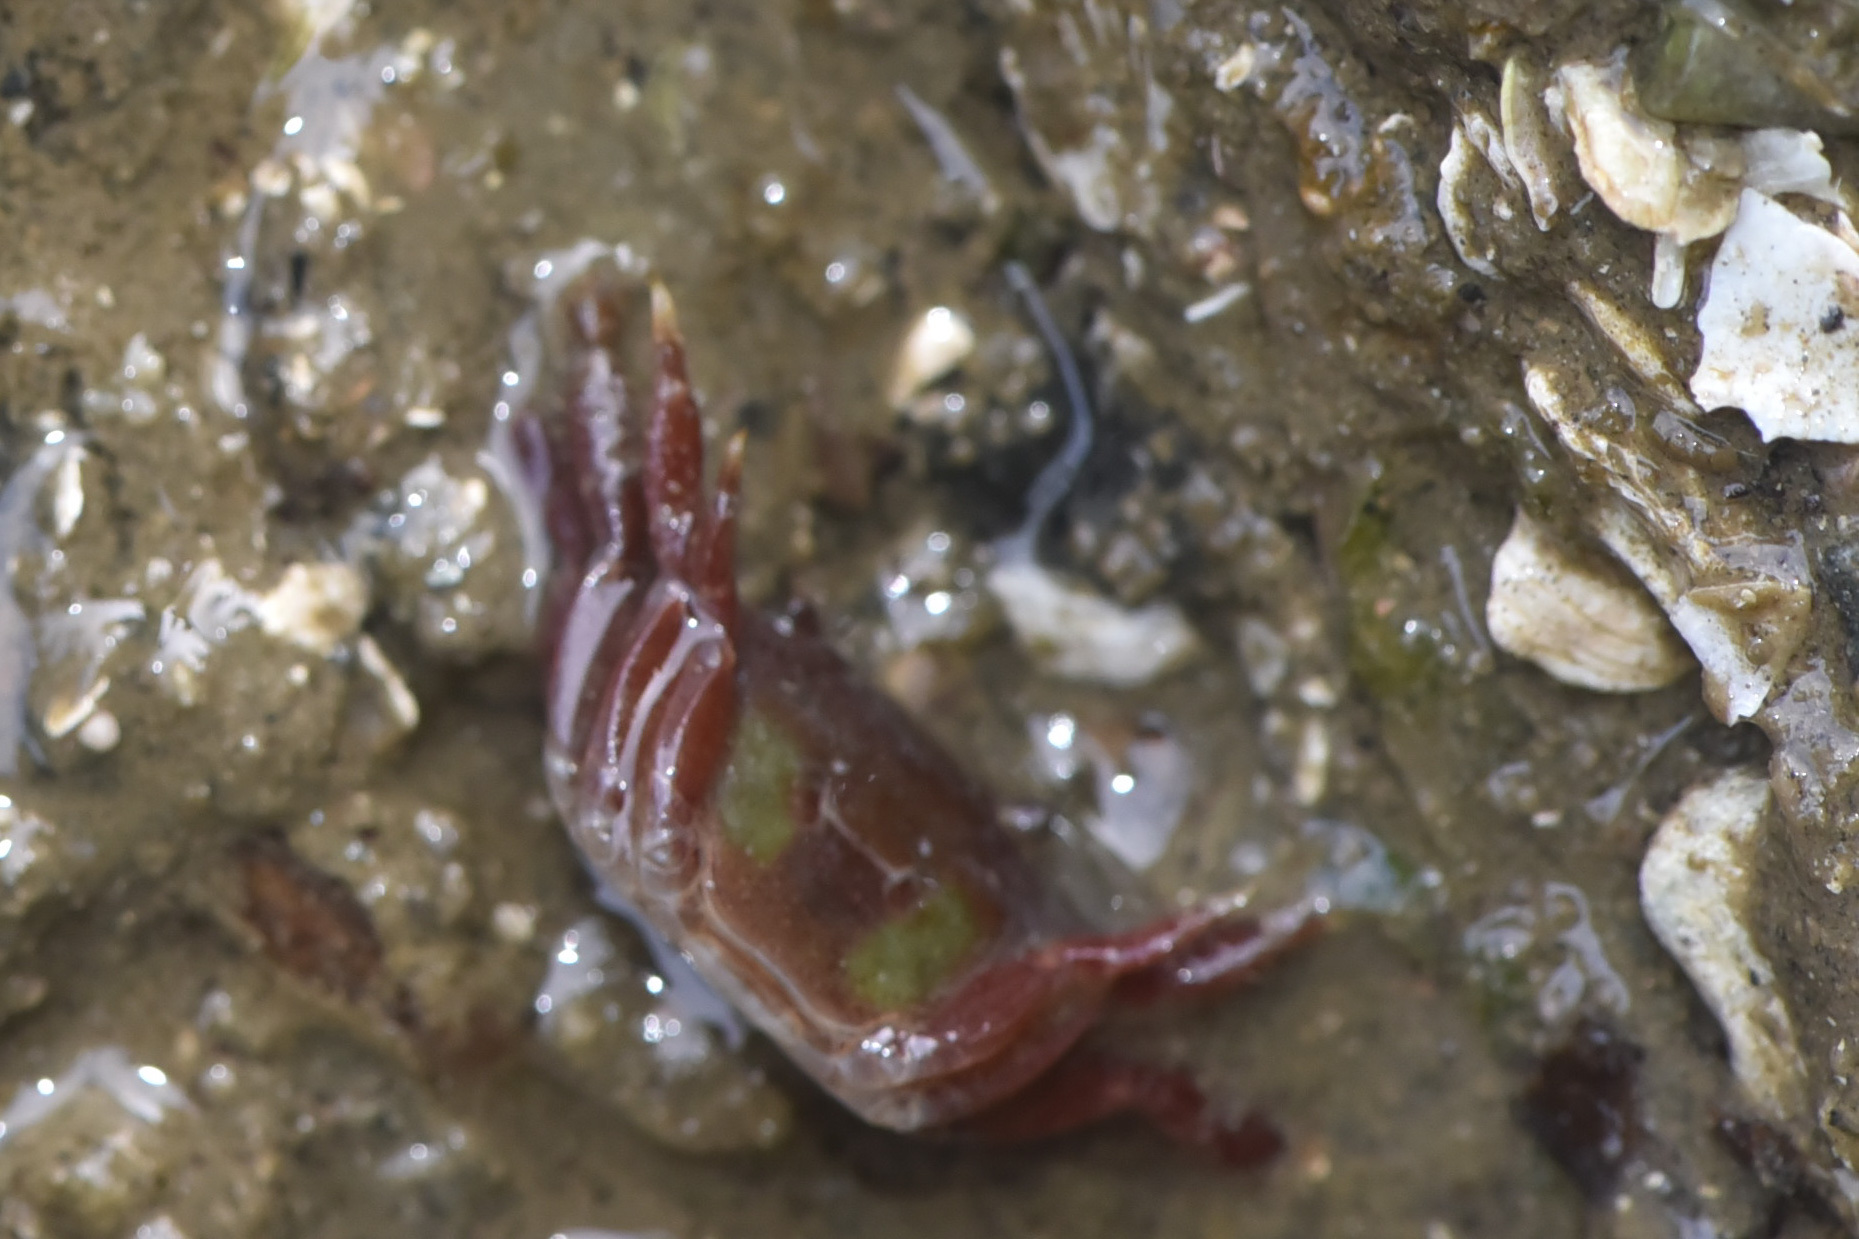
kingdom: Animalia
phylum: Arthropoda
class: Malacostraca
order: Decapoda
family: Varunidae
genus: Hemigrapsus
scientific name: Hemigrapsus oregonensis
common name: Yellow shore crab
